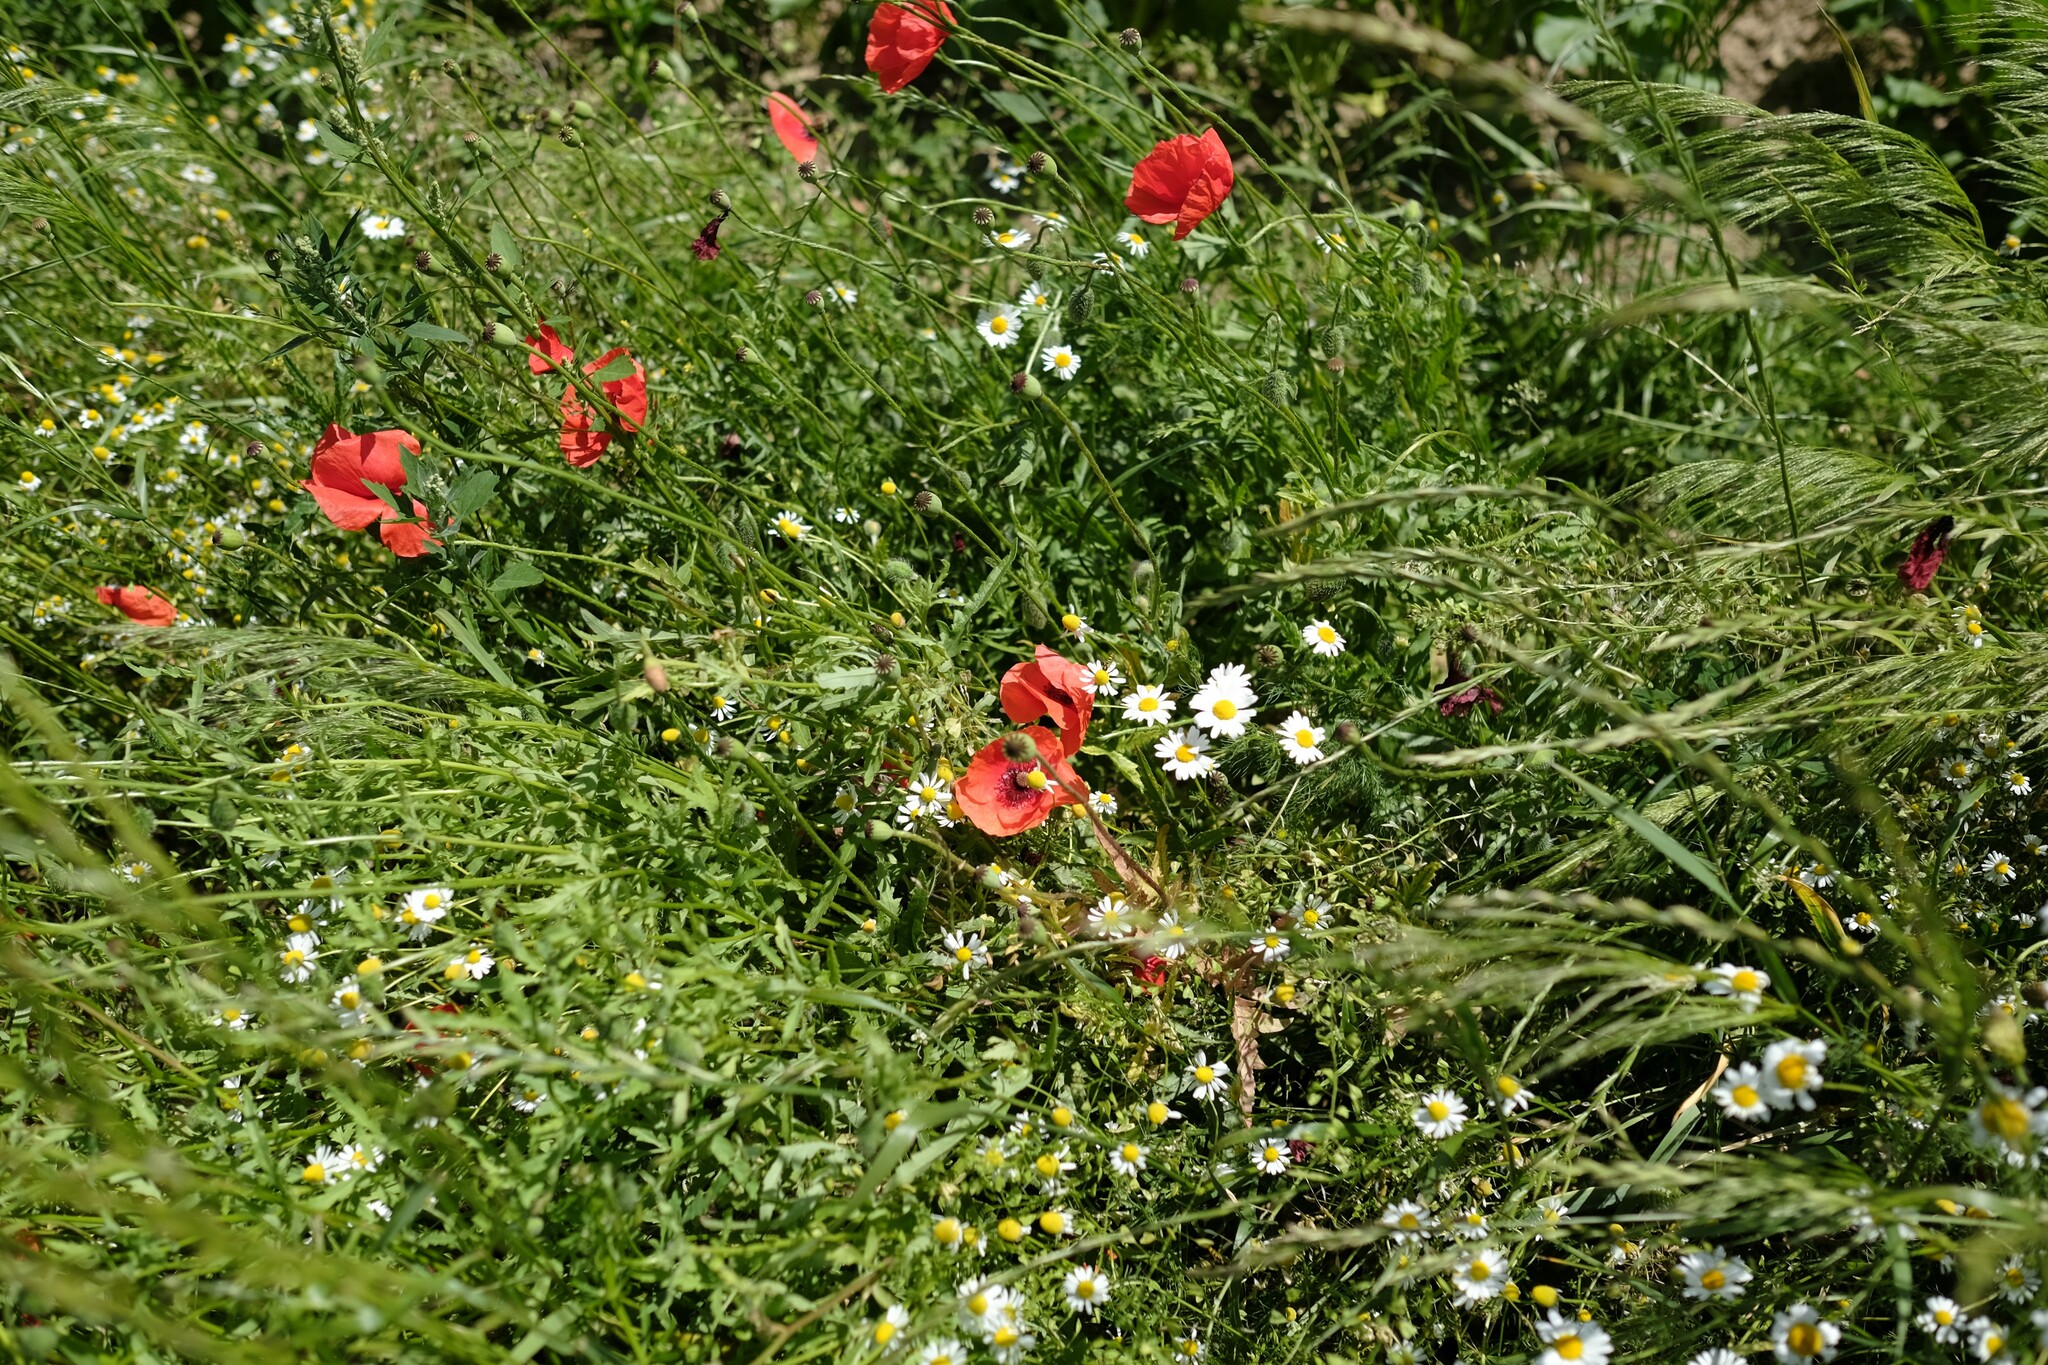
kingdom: Plantae
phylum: Tracheophyta
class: Magnoliopsida
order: Ranunculales
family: Papaveraceae
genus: Papaver
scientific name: Papaver rhoeas
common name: Corn poppy
